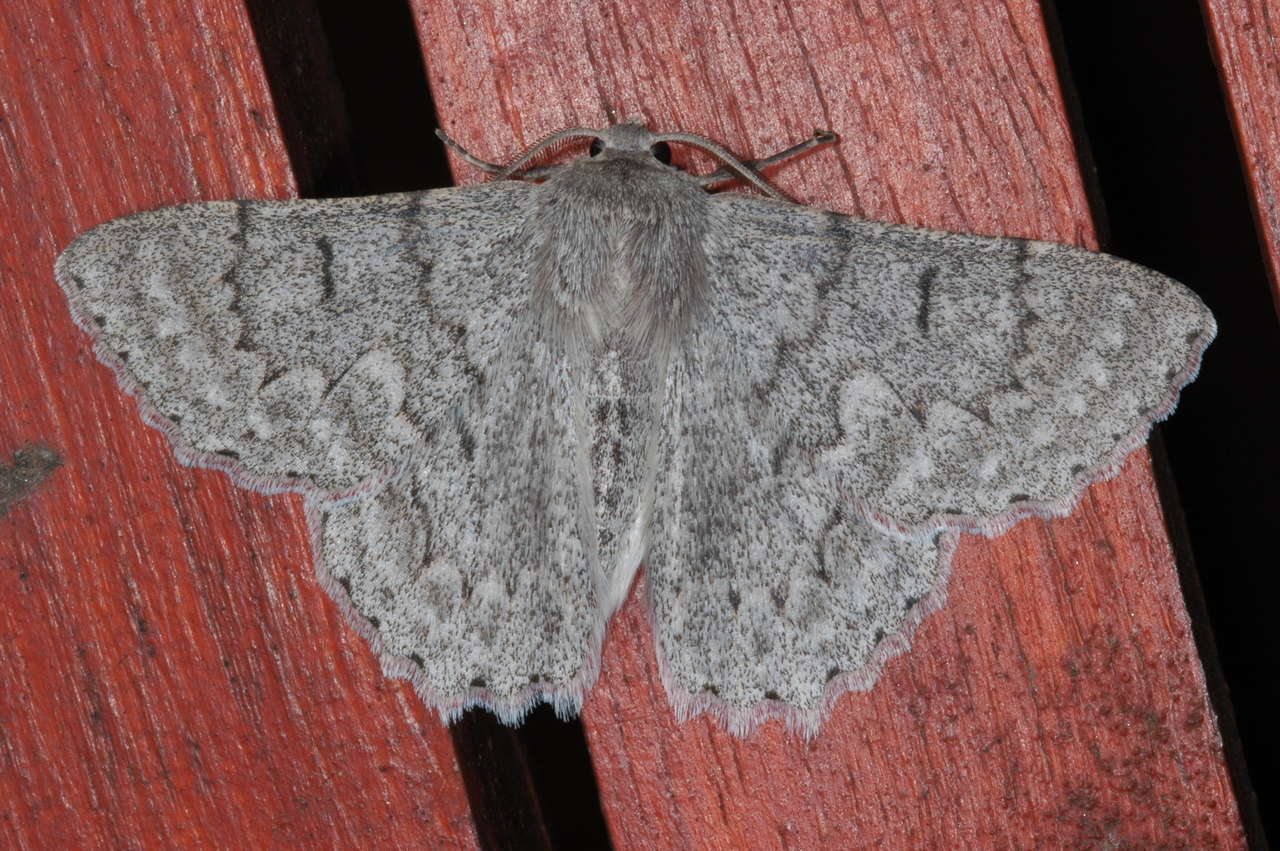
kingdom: Animalia
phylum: Arthropoda
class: Insecta
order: Lepidoptera
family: Geometridae
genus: Crypsiphona
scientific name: Crypsiphona ocultaria
